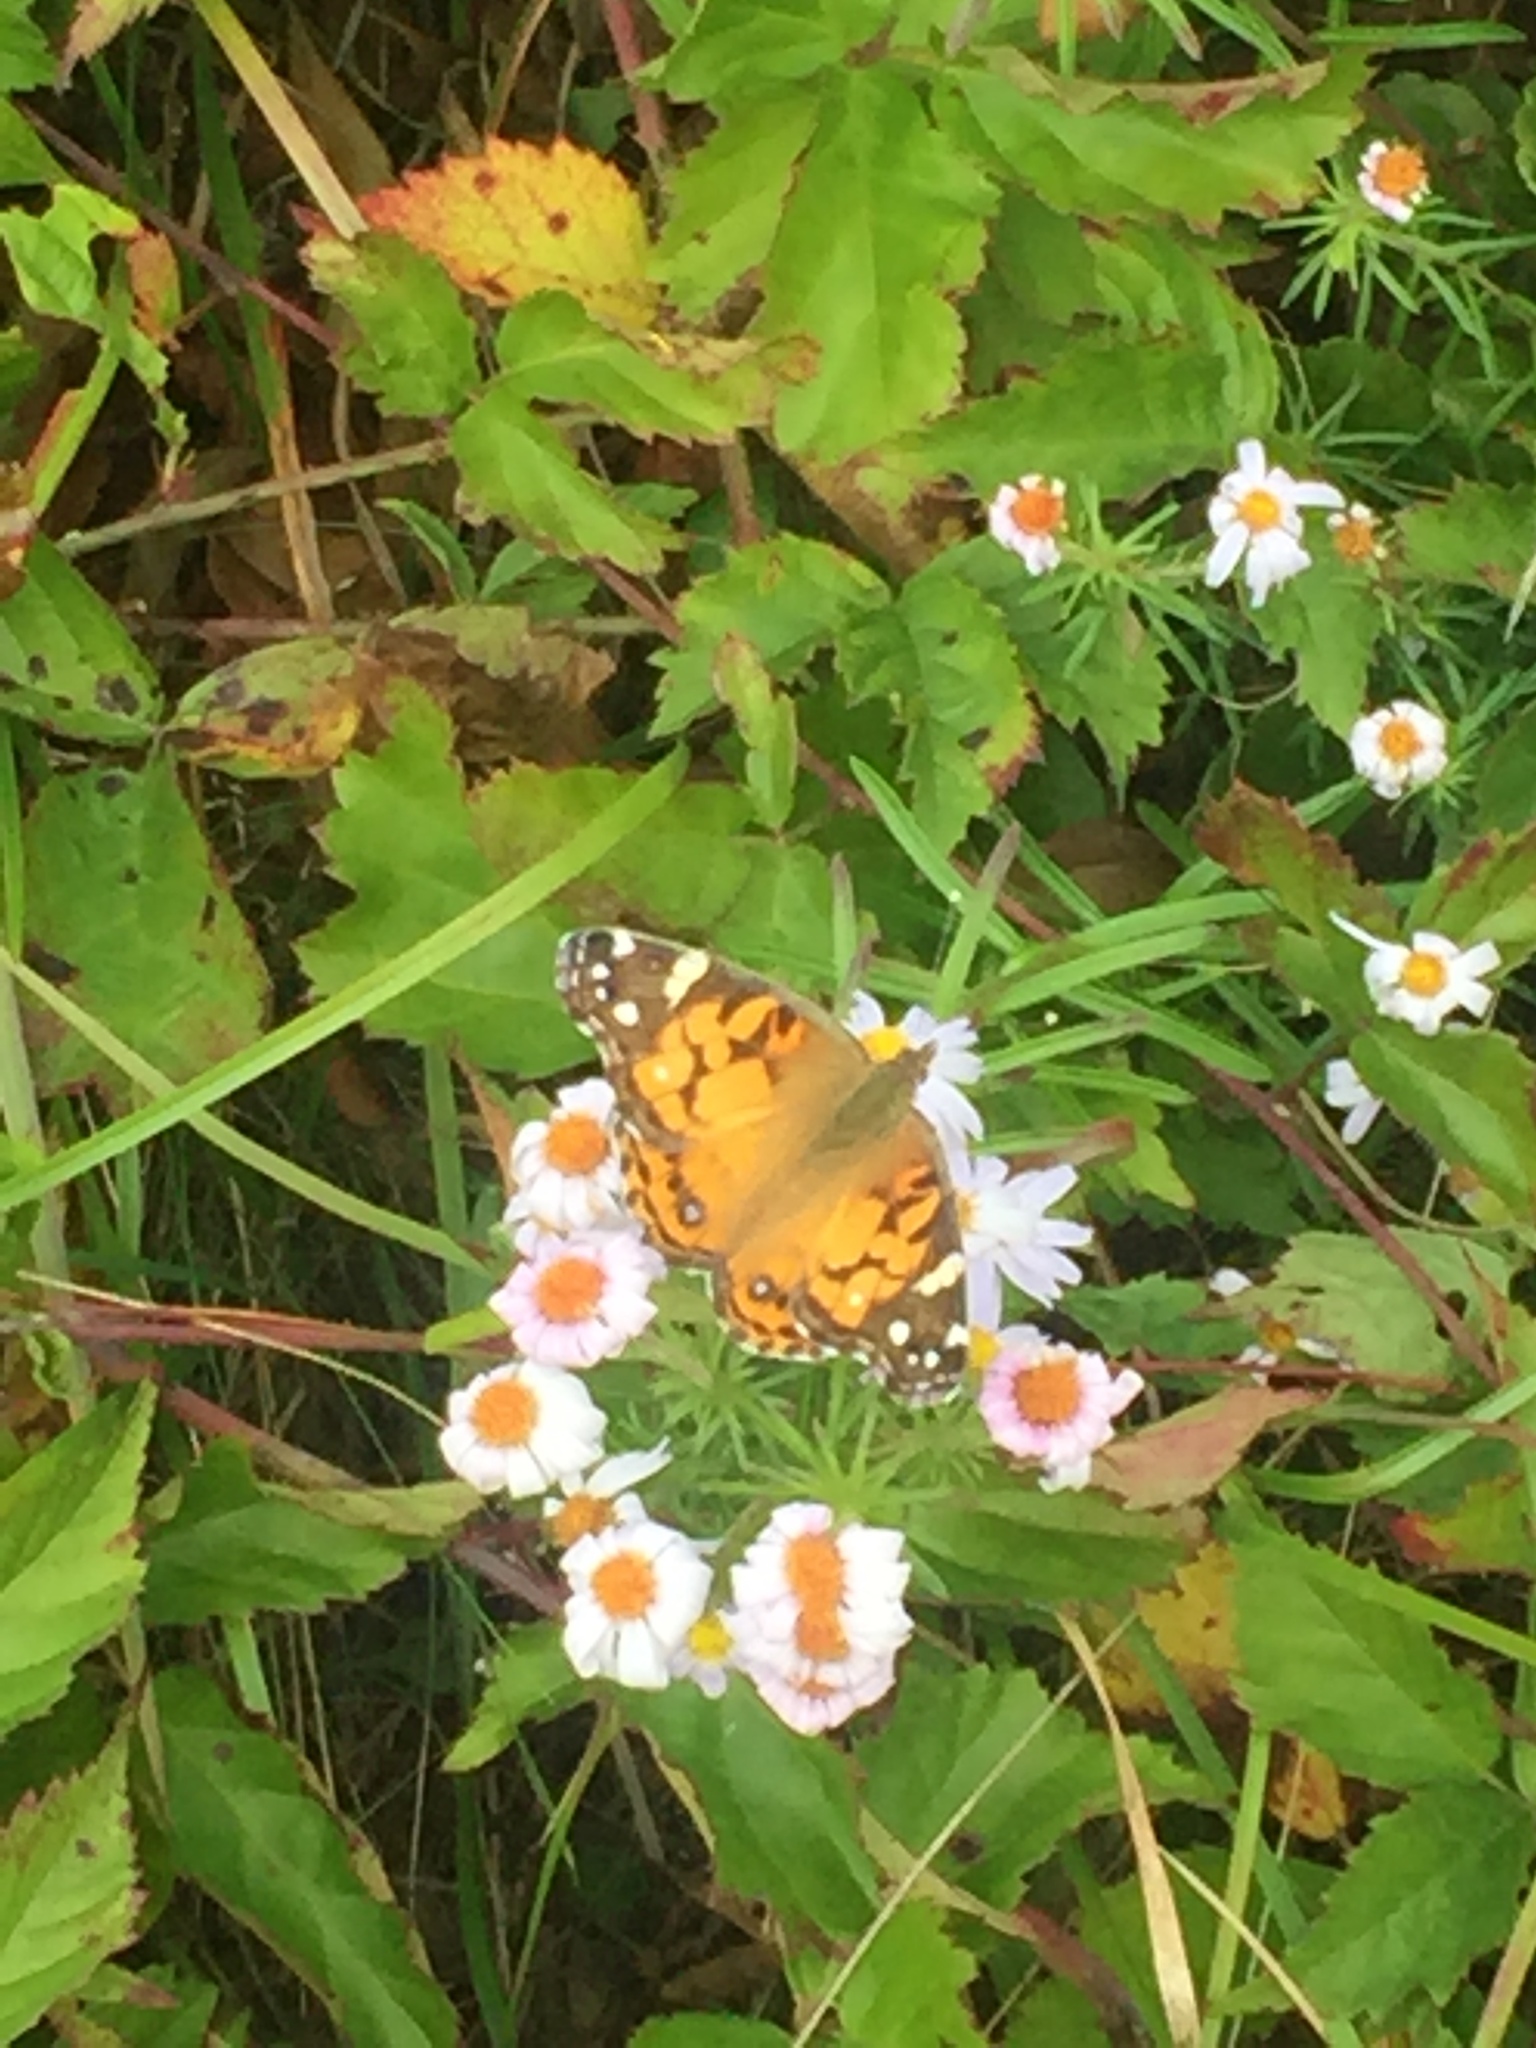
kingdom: Animalia
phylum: Arthropoda
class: Insecta
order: Lepidoptera
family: Nymphalidae
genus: Vanessa
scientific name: Vanessa virginiensis
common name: American lady
